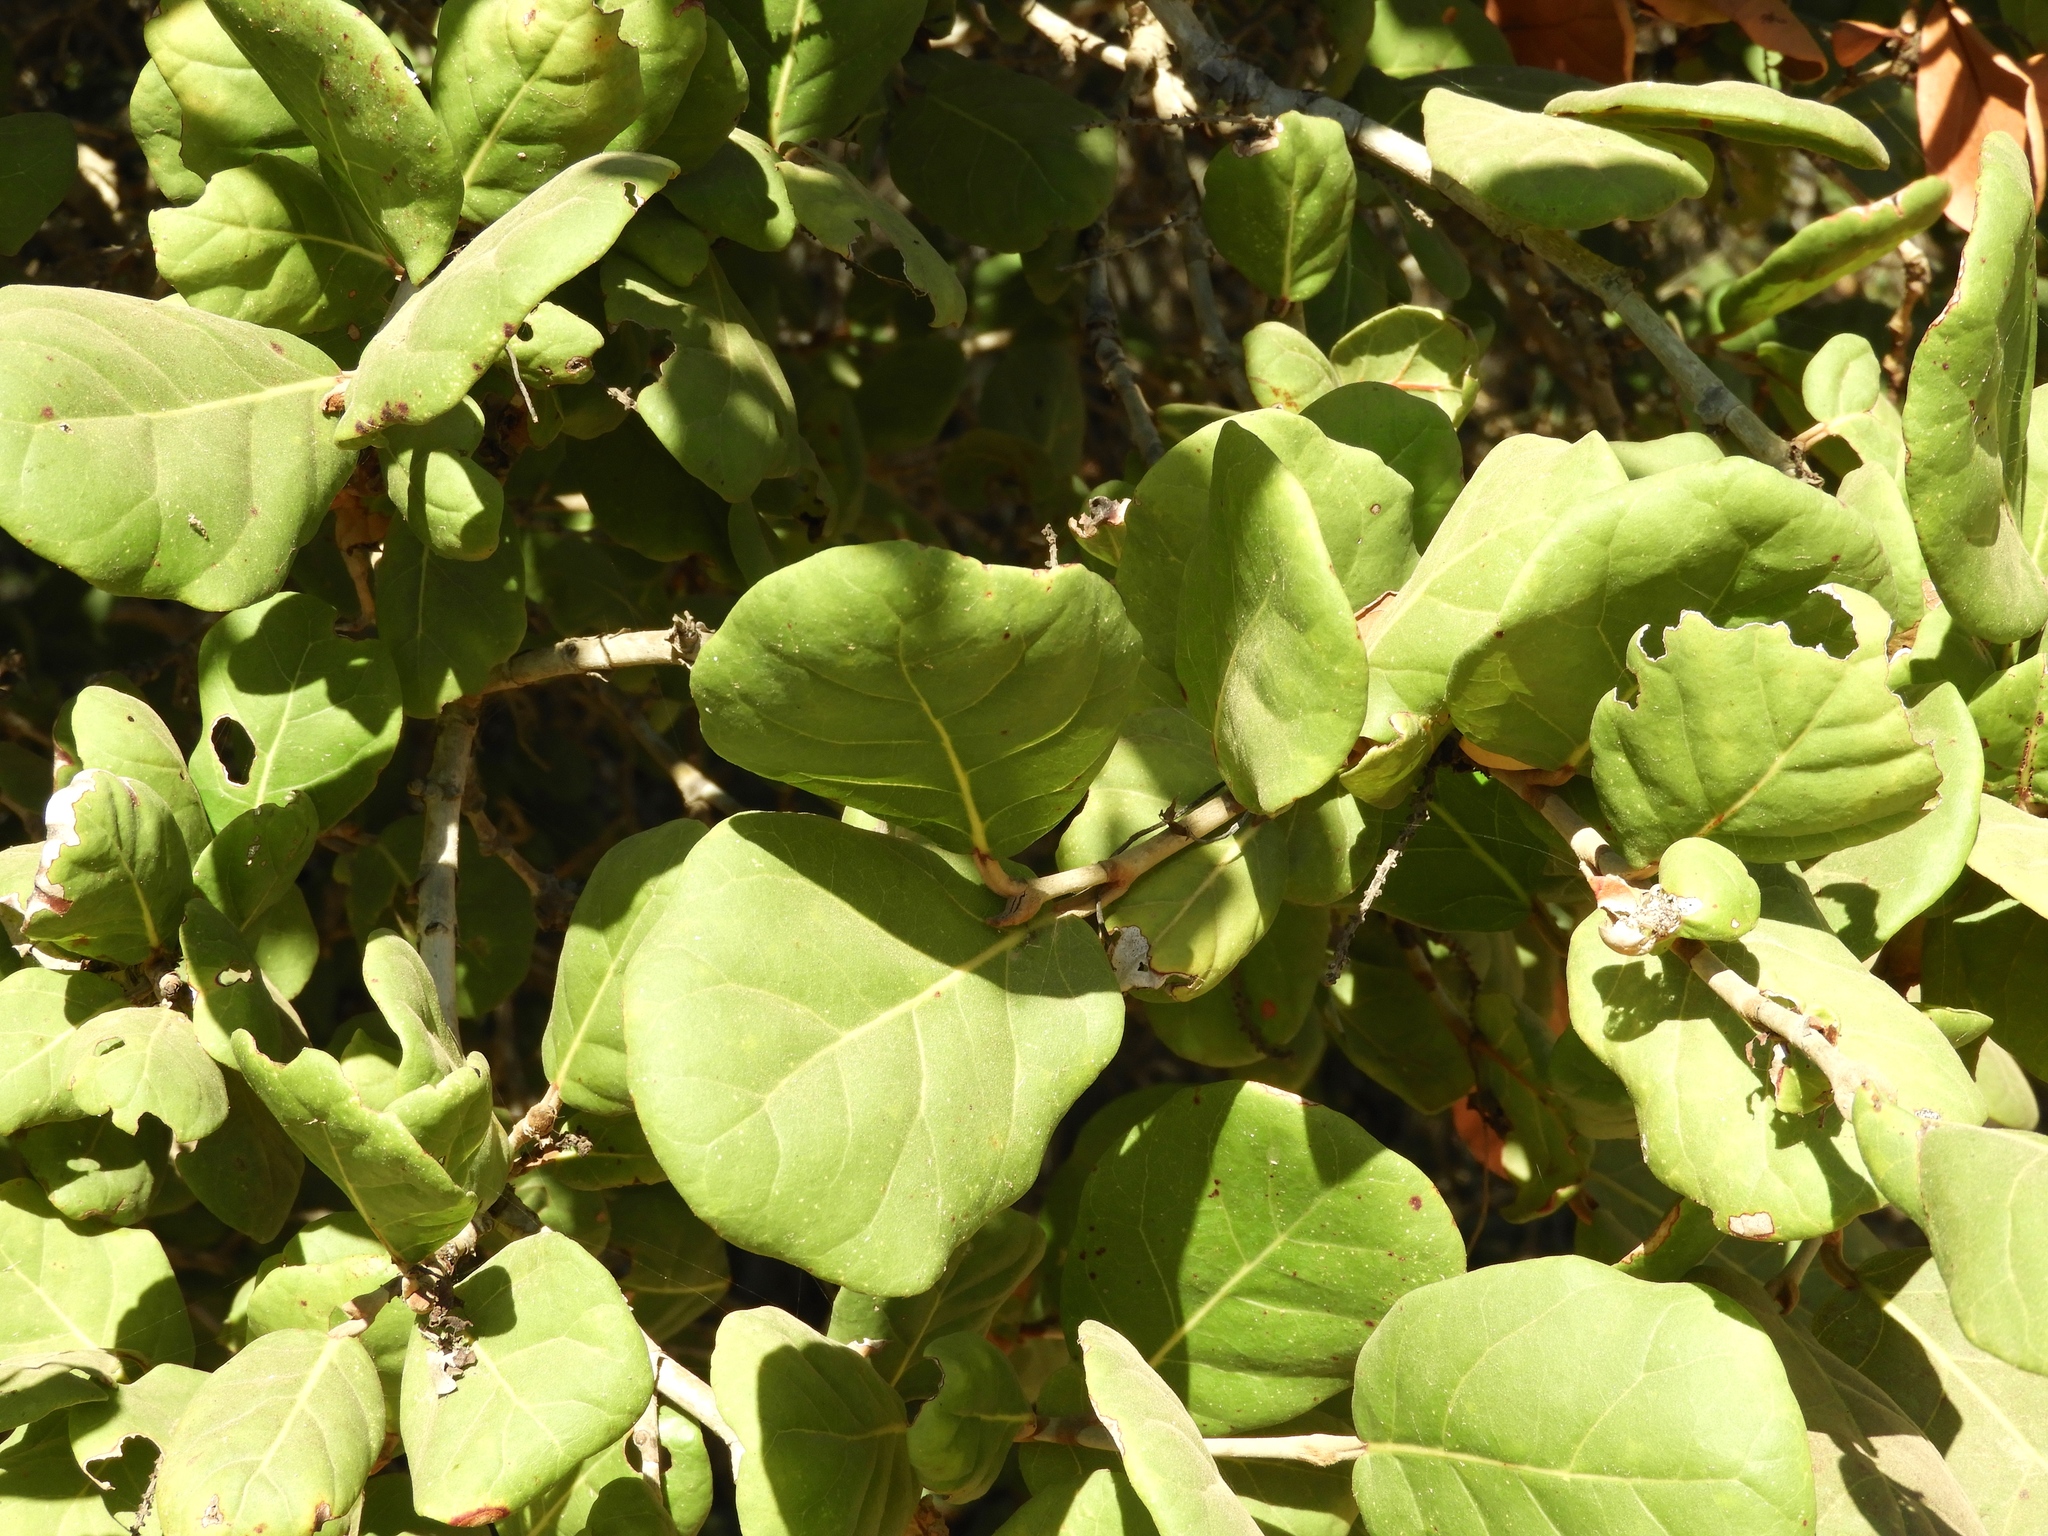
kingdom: Plantae
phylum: Tracheophyta
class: Magnoliopsida
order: Caryophyllales
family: Polygonaceae
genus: Coccoloba
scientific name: Coccoloba uvifera
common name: Seagrape
